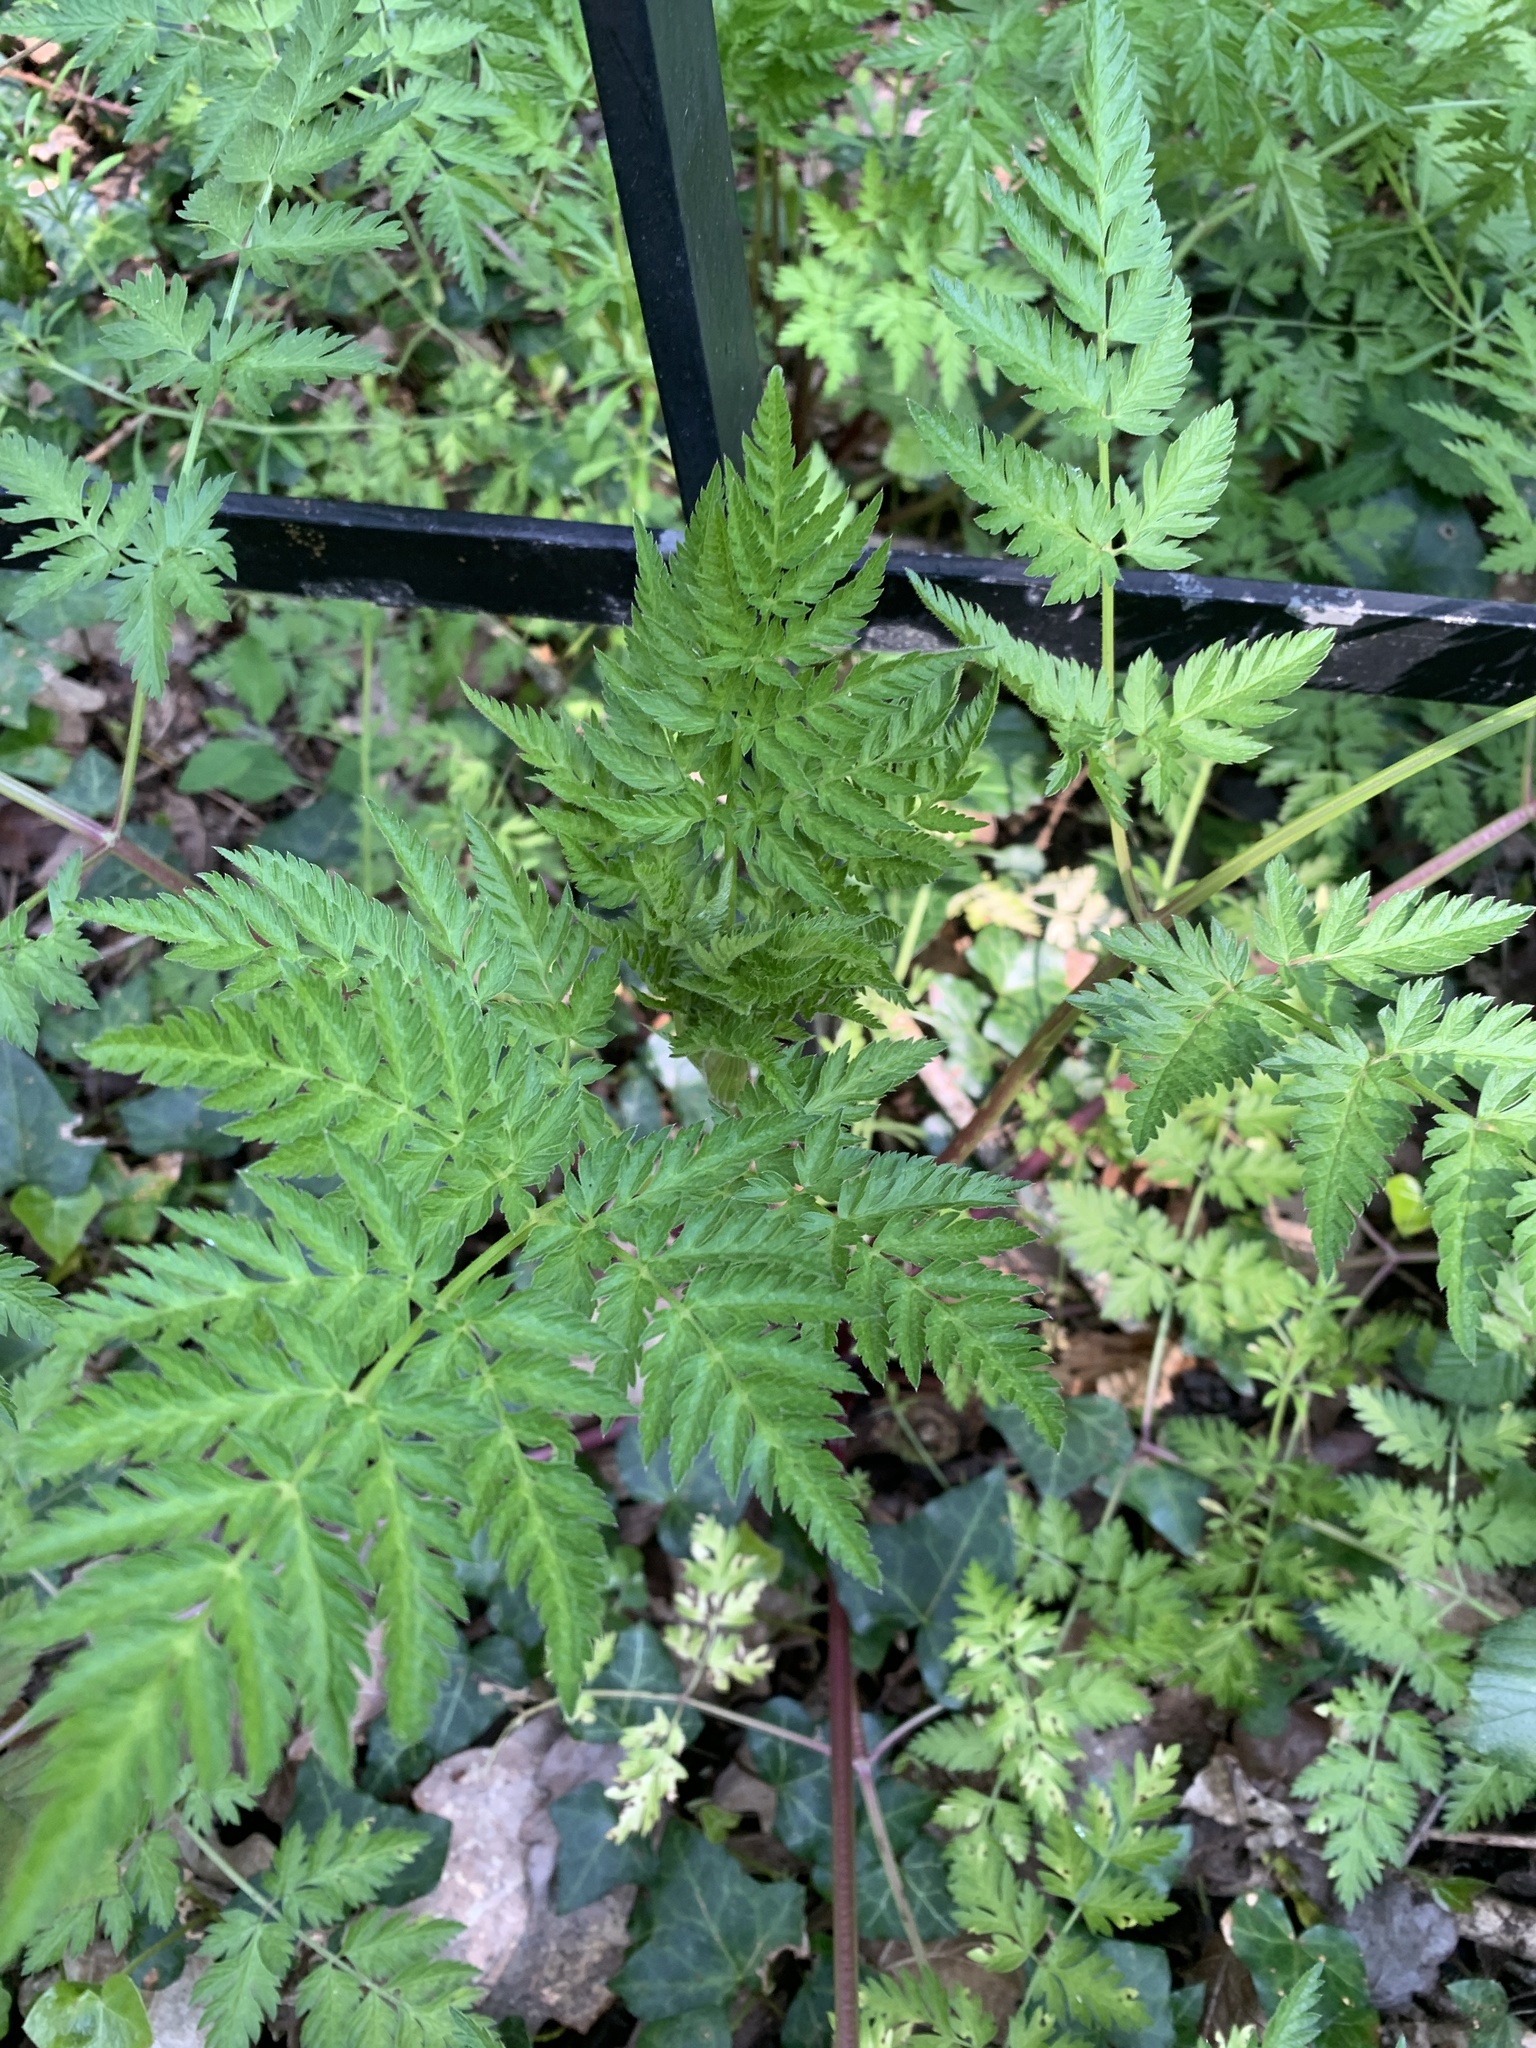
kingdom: Plantae
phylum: Tracheophyta
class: Magnoliopsida
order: Apiales
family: Apiaceae
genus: Anthriscus
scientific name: Anthriscus sylvestris
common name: Cow parsley
